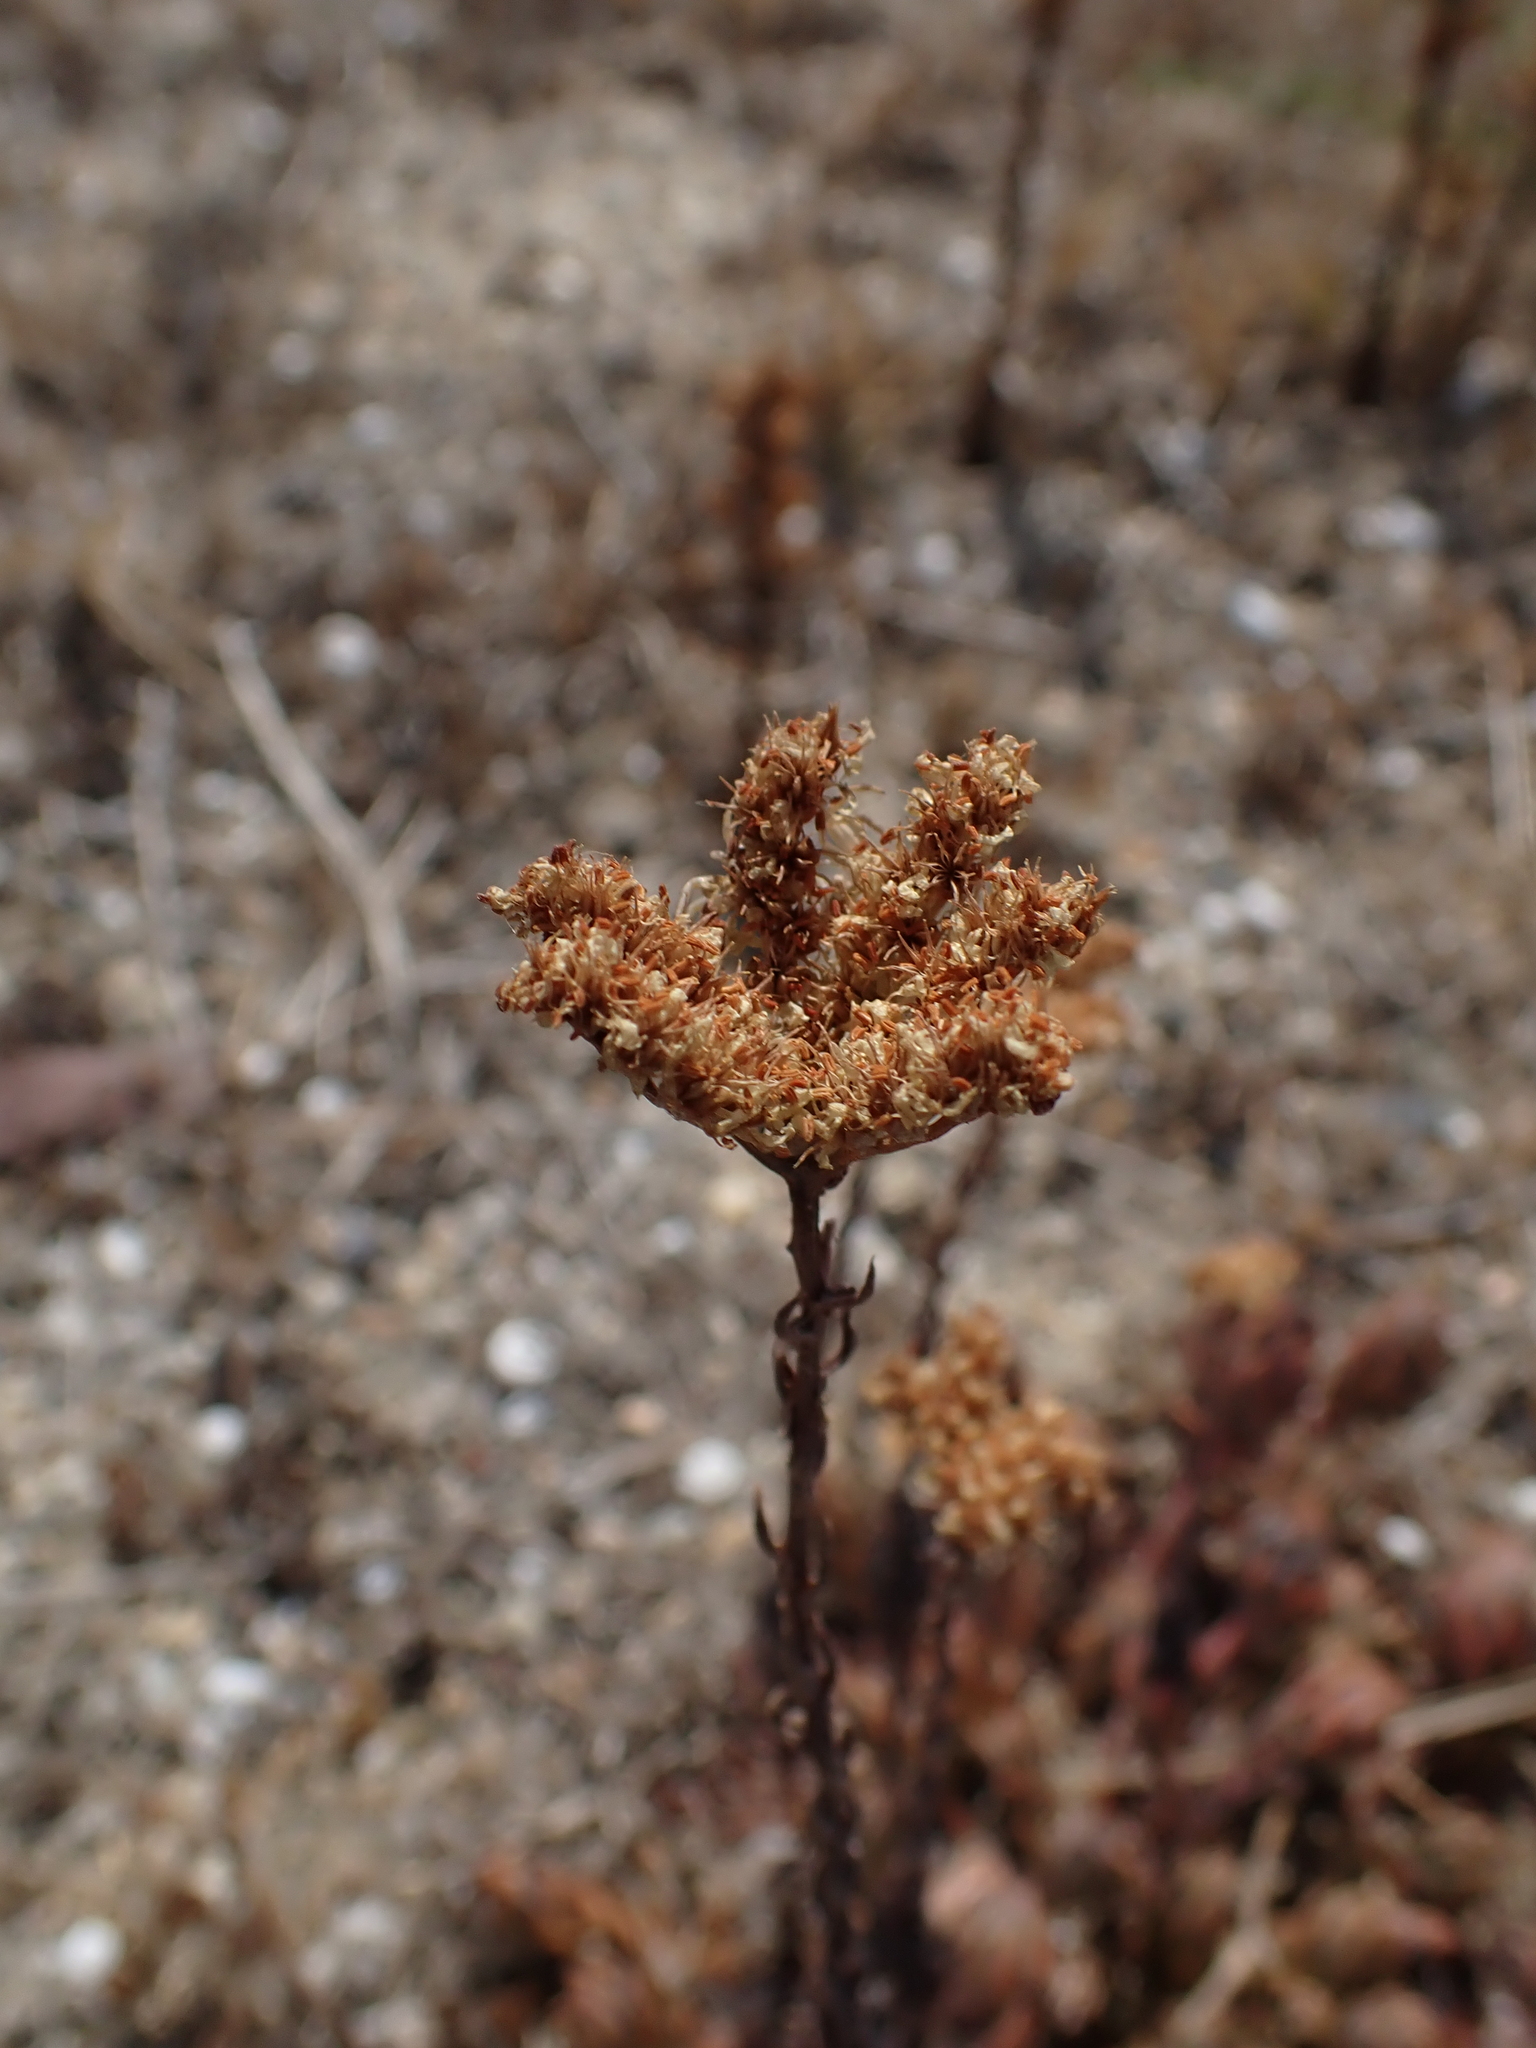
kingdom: Plantae
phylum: Tracheophyta
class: Magnoliopsida
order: Saxifragales
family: Crassulaceae
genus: Petrosedum
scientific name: Petrosedum sediforme
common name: Pale stonecrop
